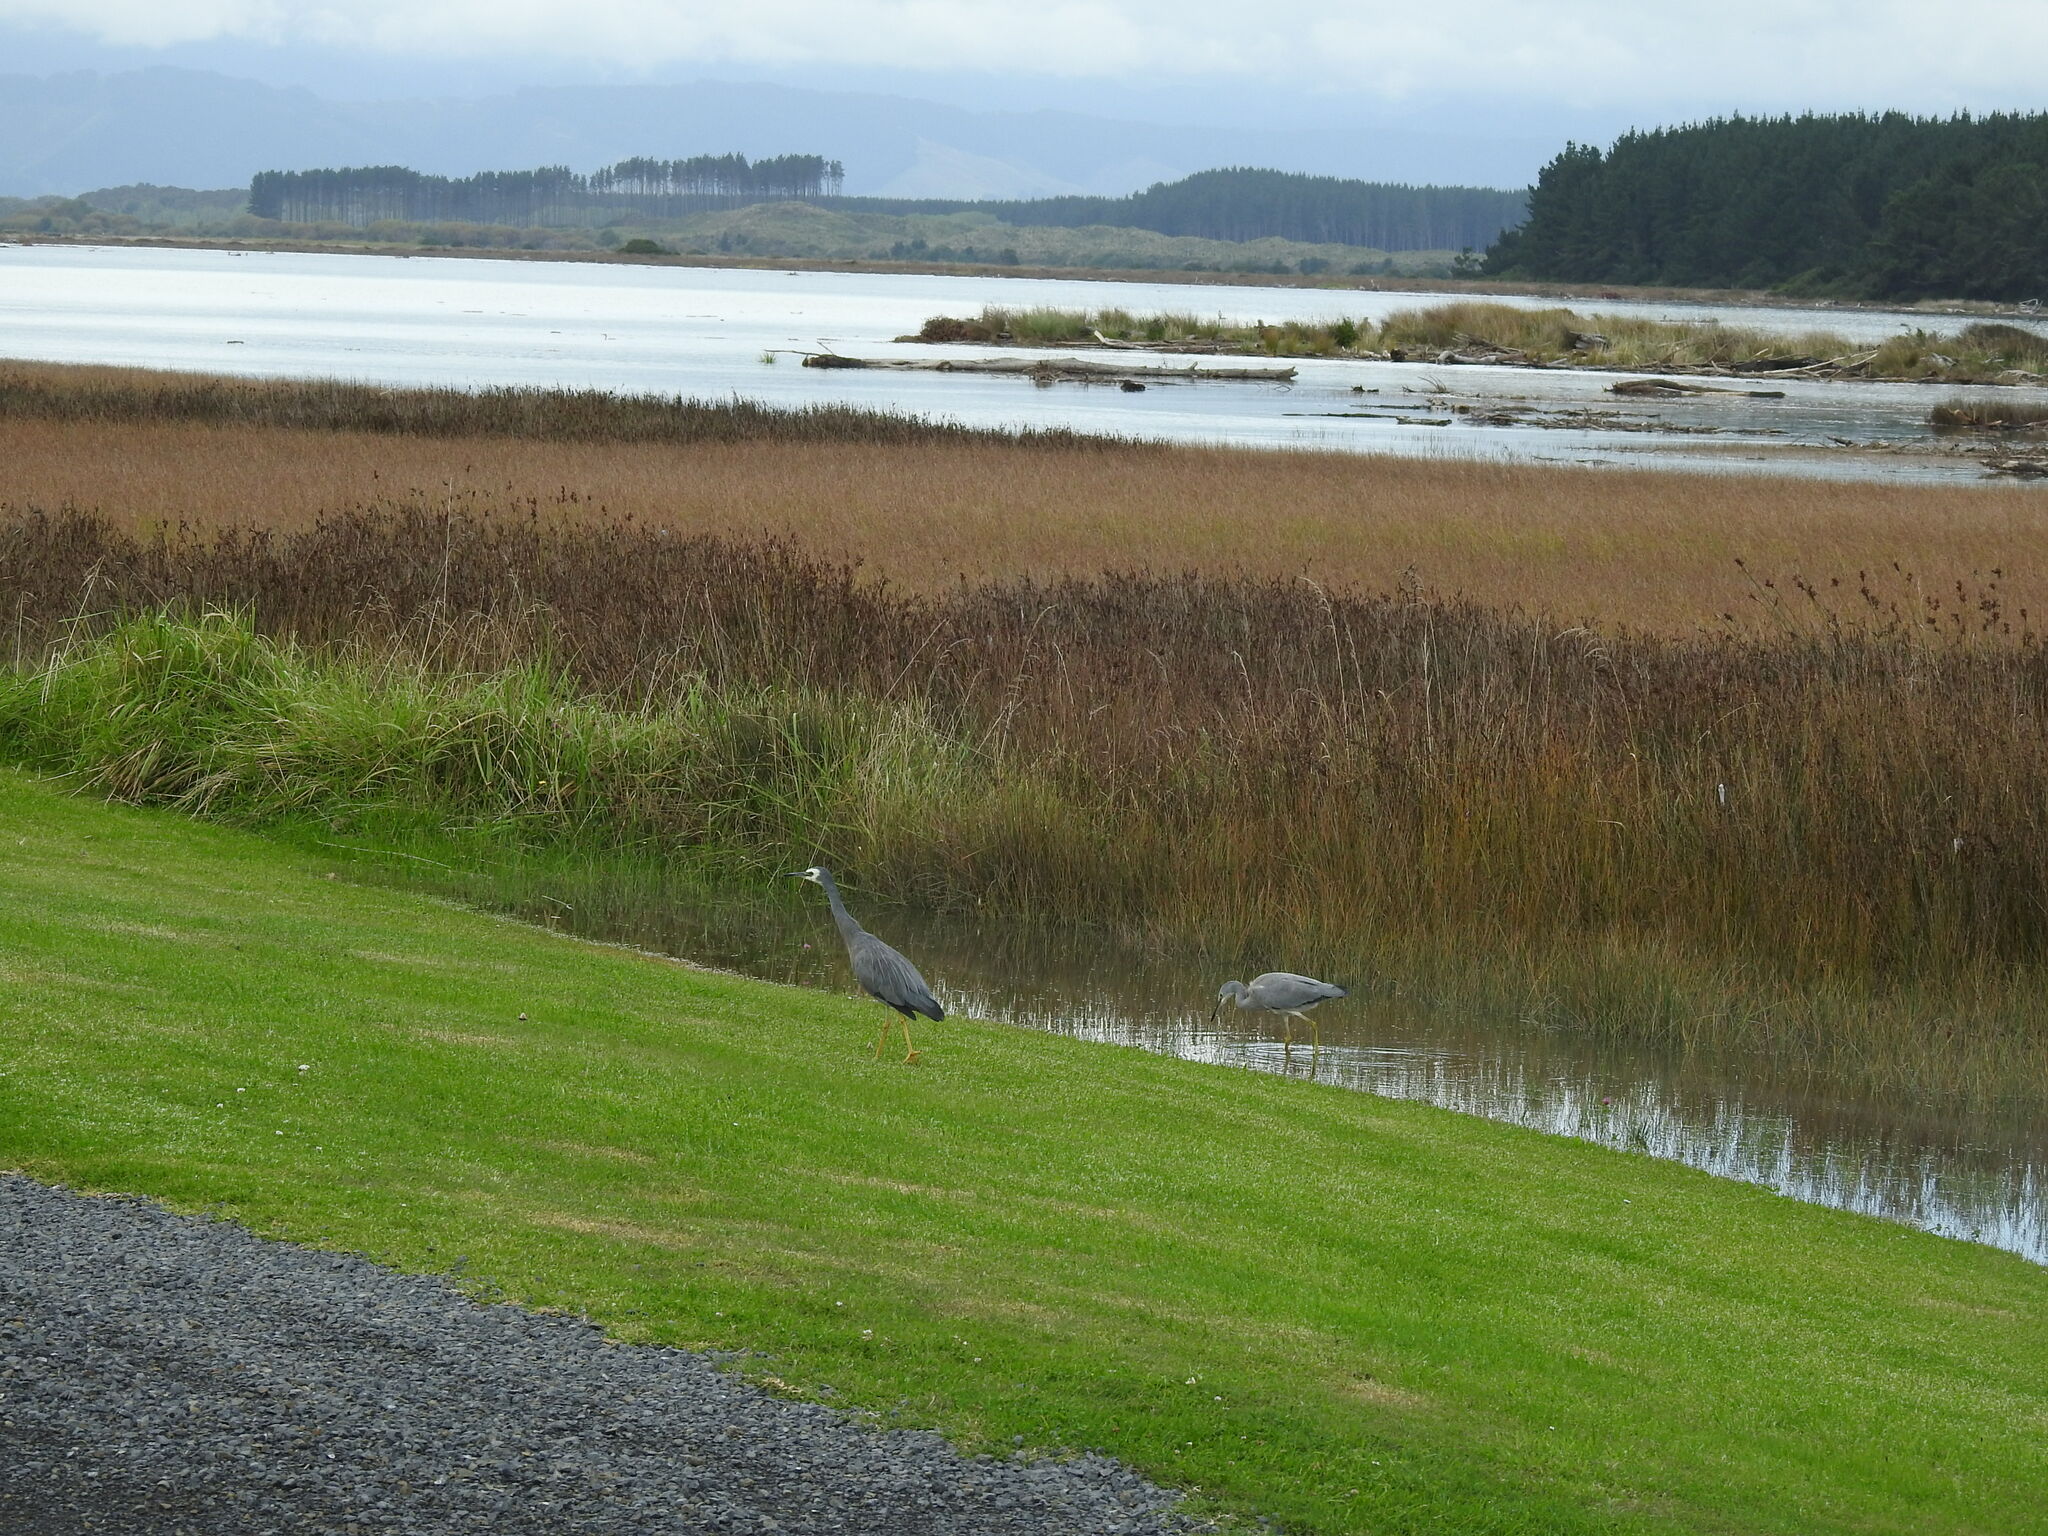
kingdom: Animalia
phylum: Chordata
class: Aves
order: Pelecaniformes
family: Ardeidae
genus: Egretta
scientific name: Egretta novaehollandiae
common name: White-faced heron
